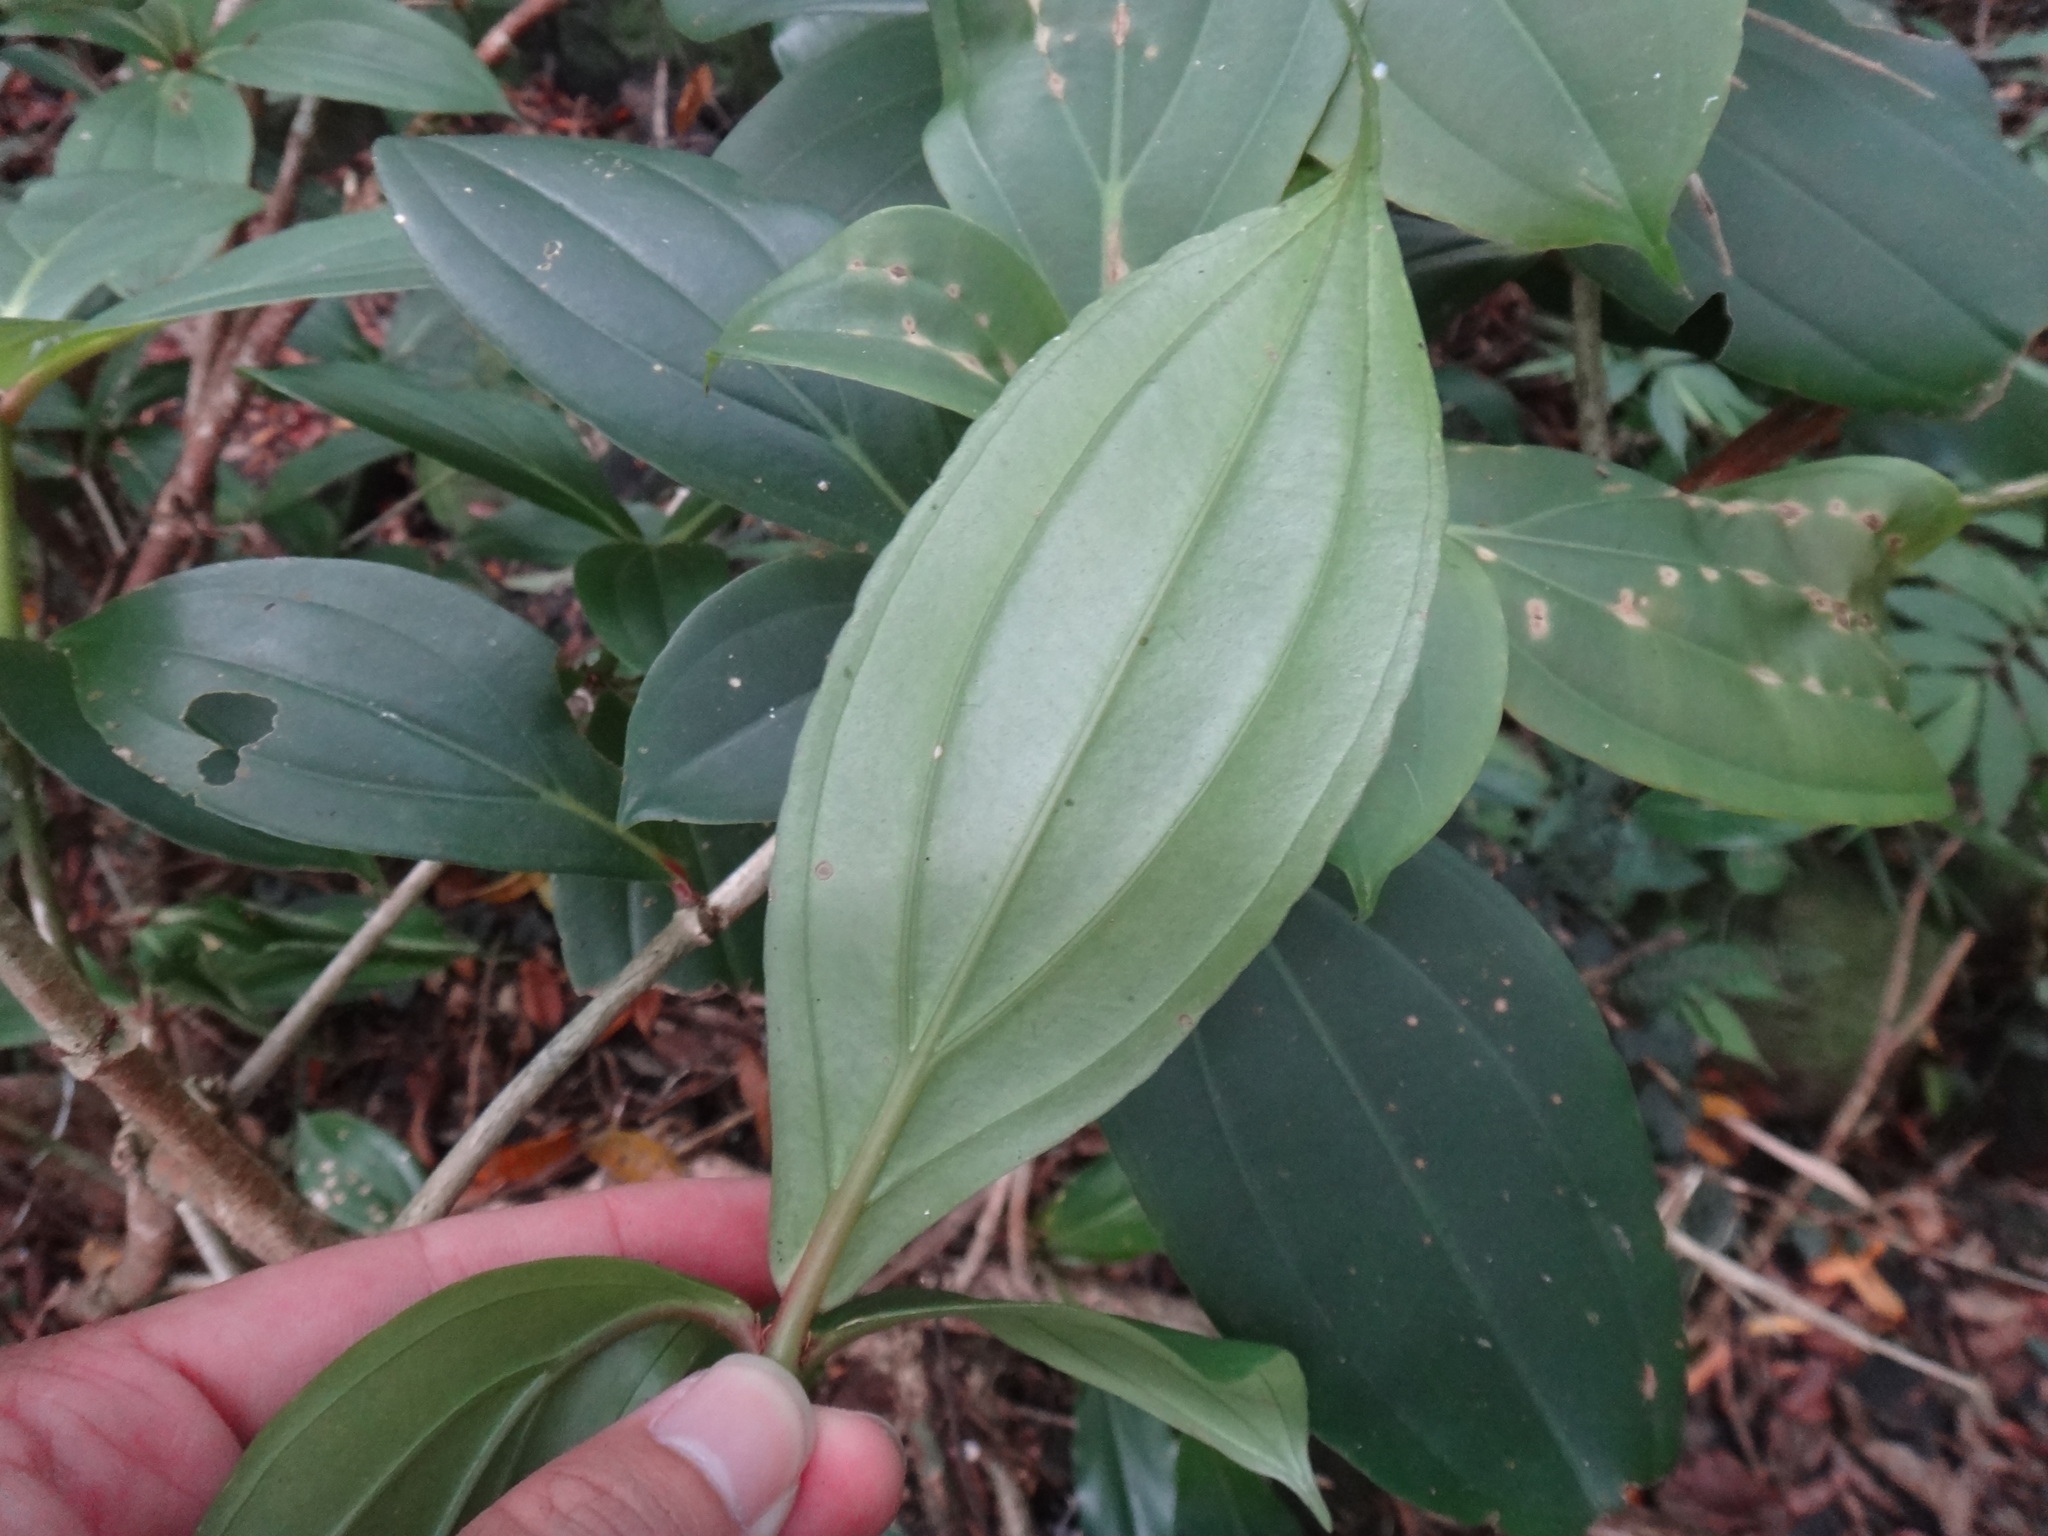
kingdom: Plantae
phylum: Tracheophyta
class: Magnoliopsida
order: Myrtales
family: Melastomataceae
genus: Medinilla
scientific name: Medinilla formosana
